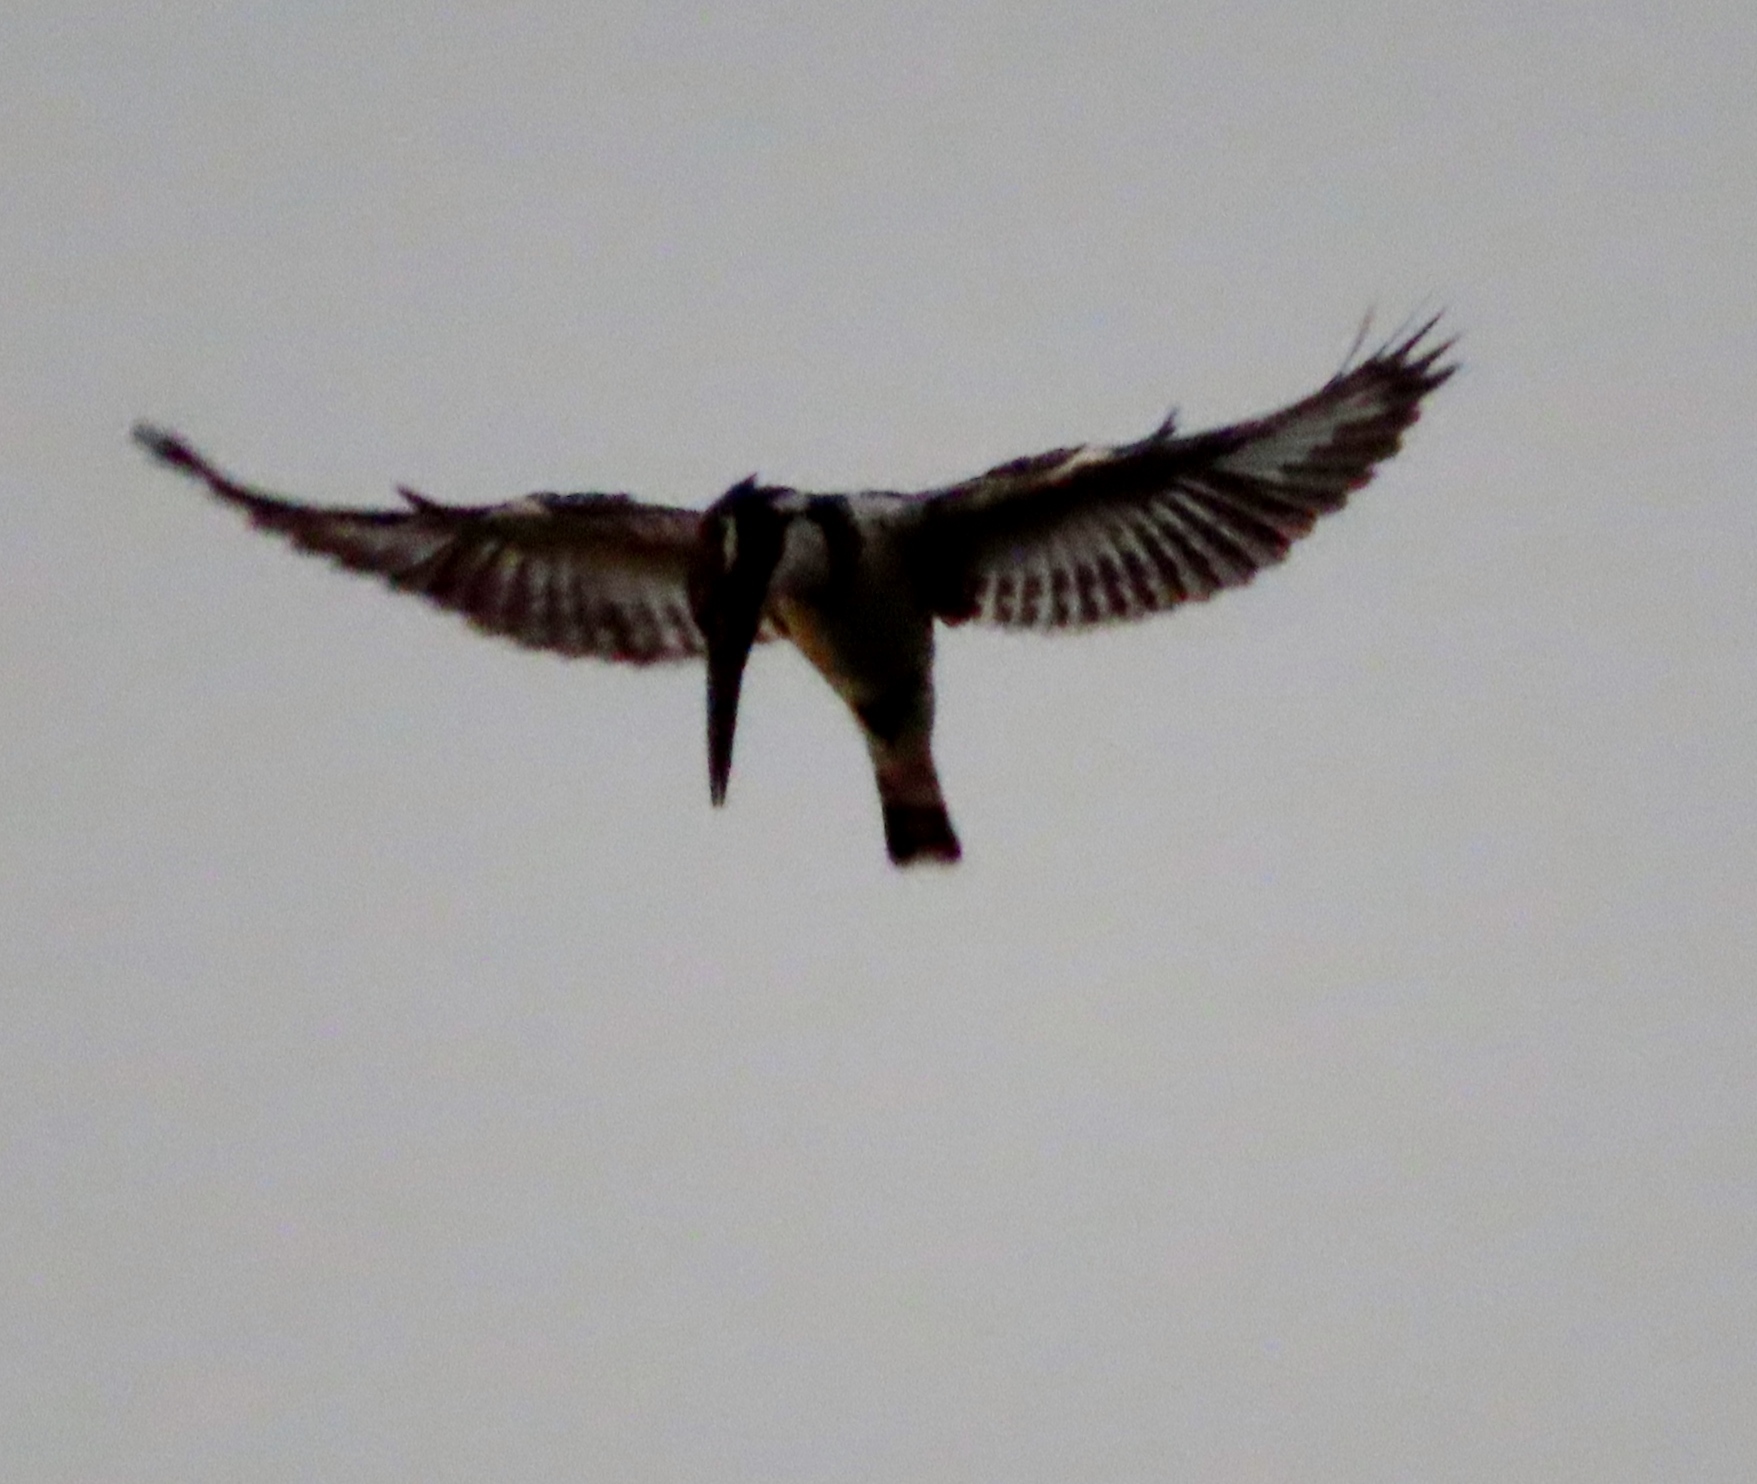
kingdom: Animalia
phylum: Chordata
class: Aves
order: Coraciiformes
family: Alcedinidae
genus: Ceryle
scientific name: Ceryle rudis
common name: Pied kingfisher
